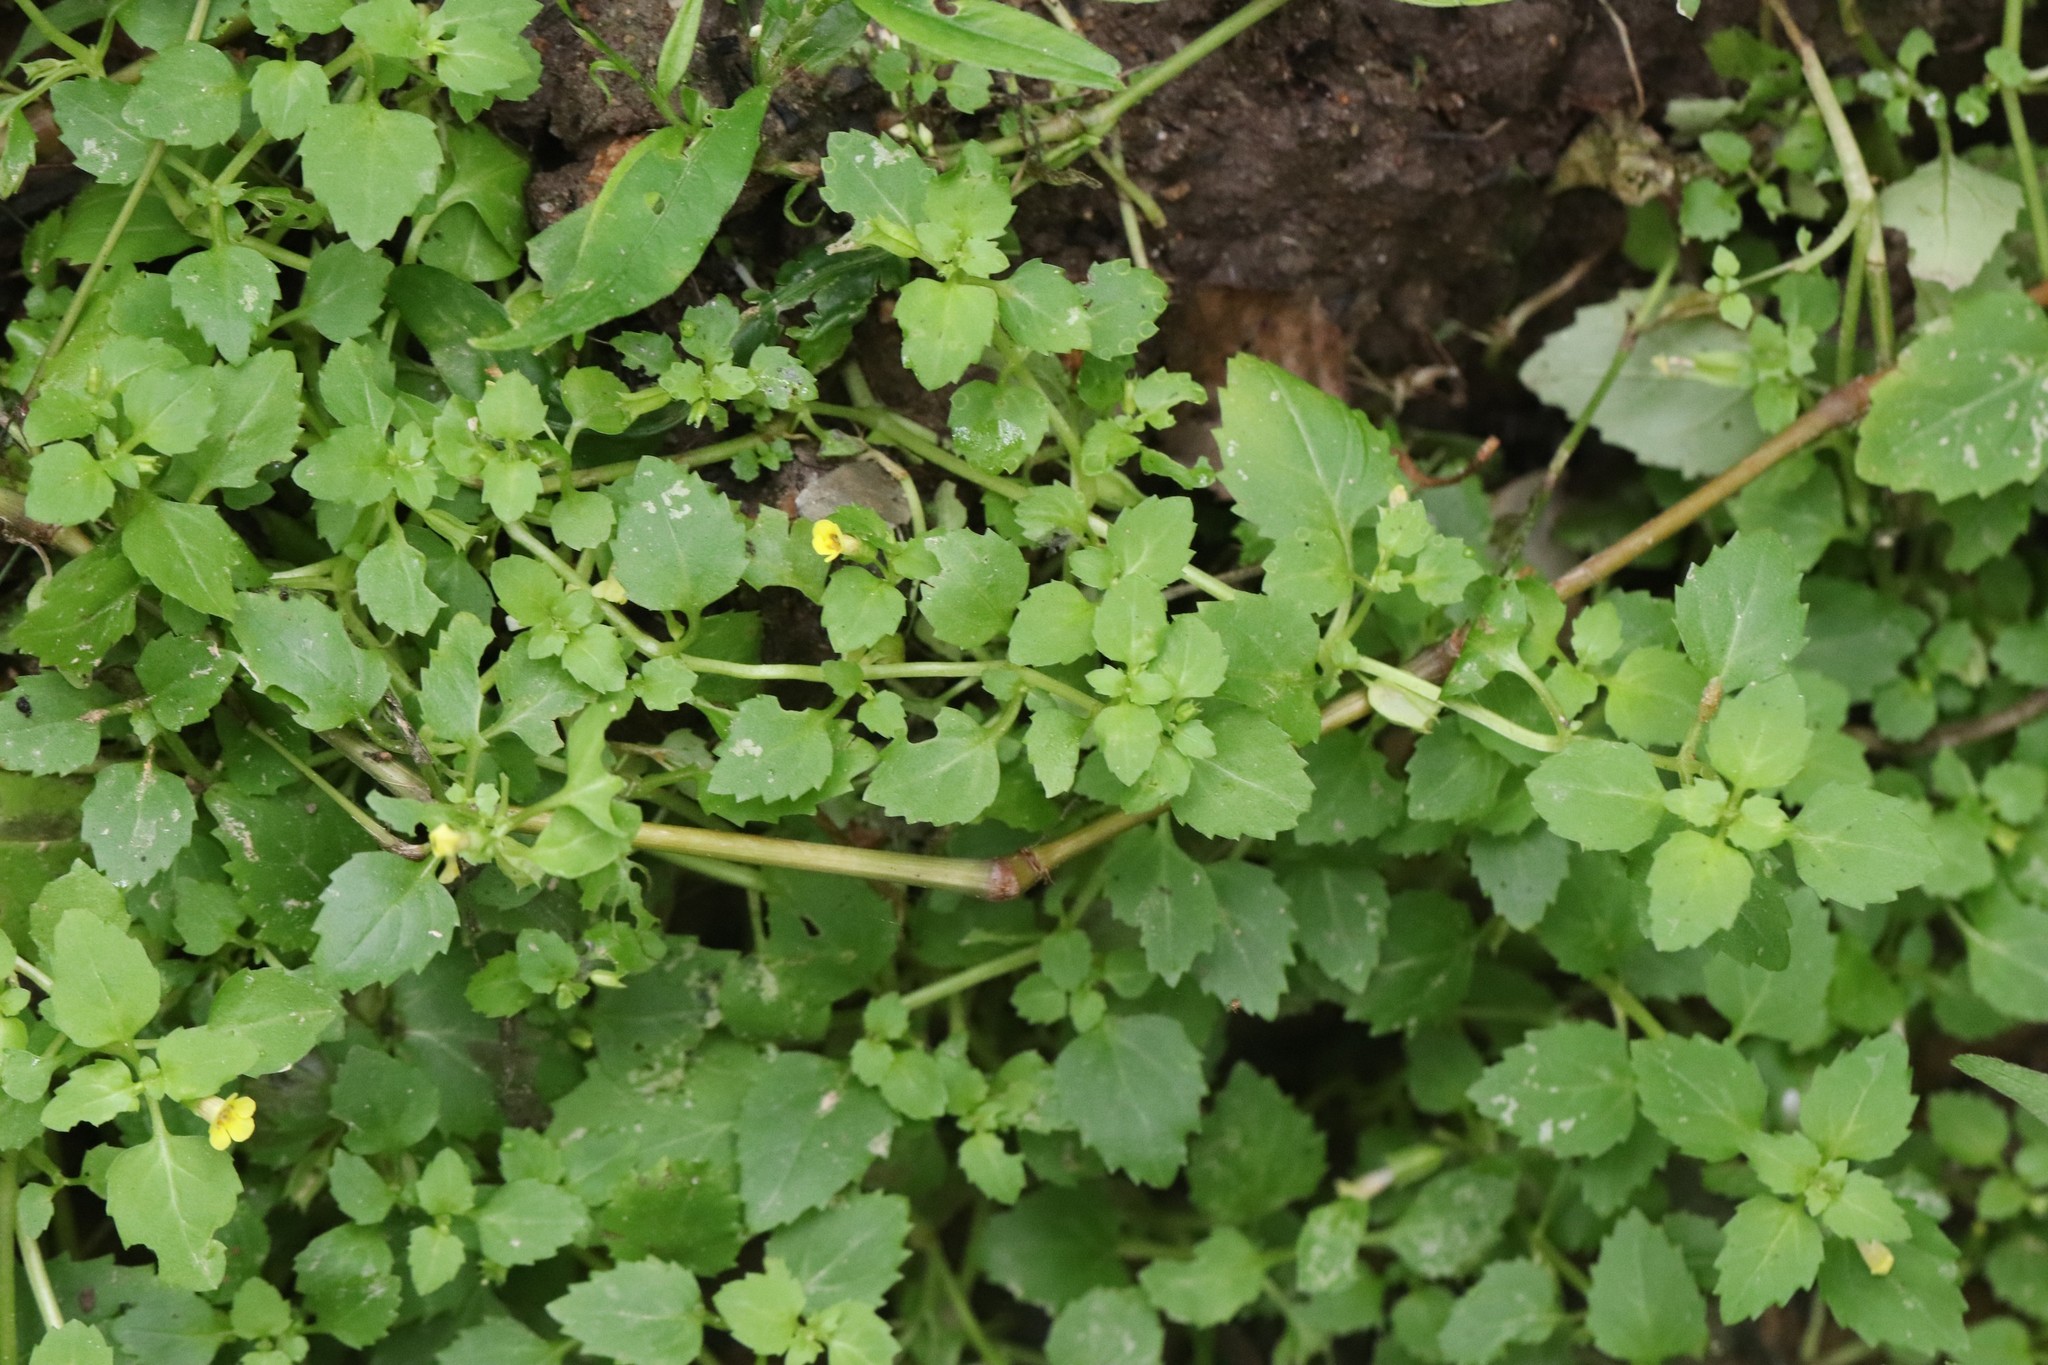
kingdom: Plantae
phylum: Tracheophyta
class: Magnoliopsida
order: Lamiales
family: Phrymaceae
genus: Erythranthe
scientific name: Erythranthe tenella
